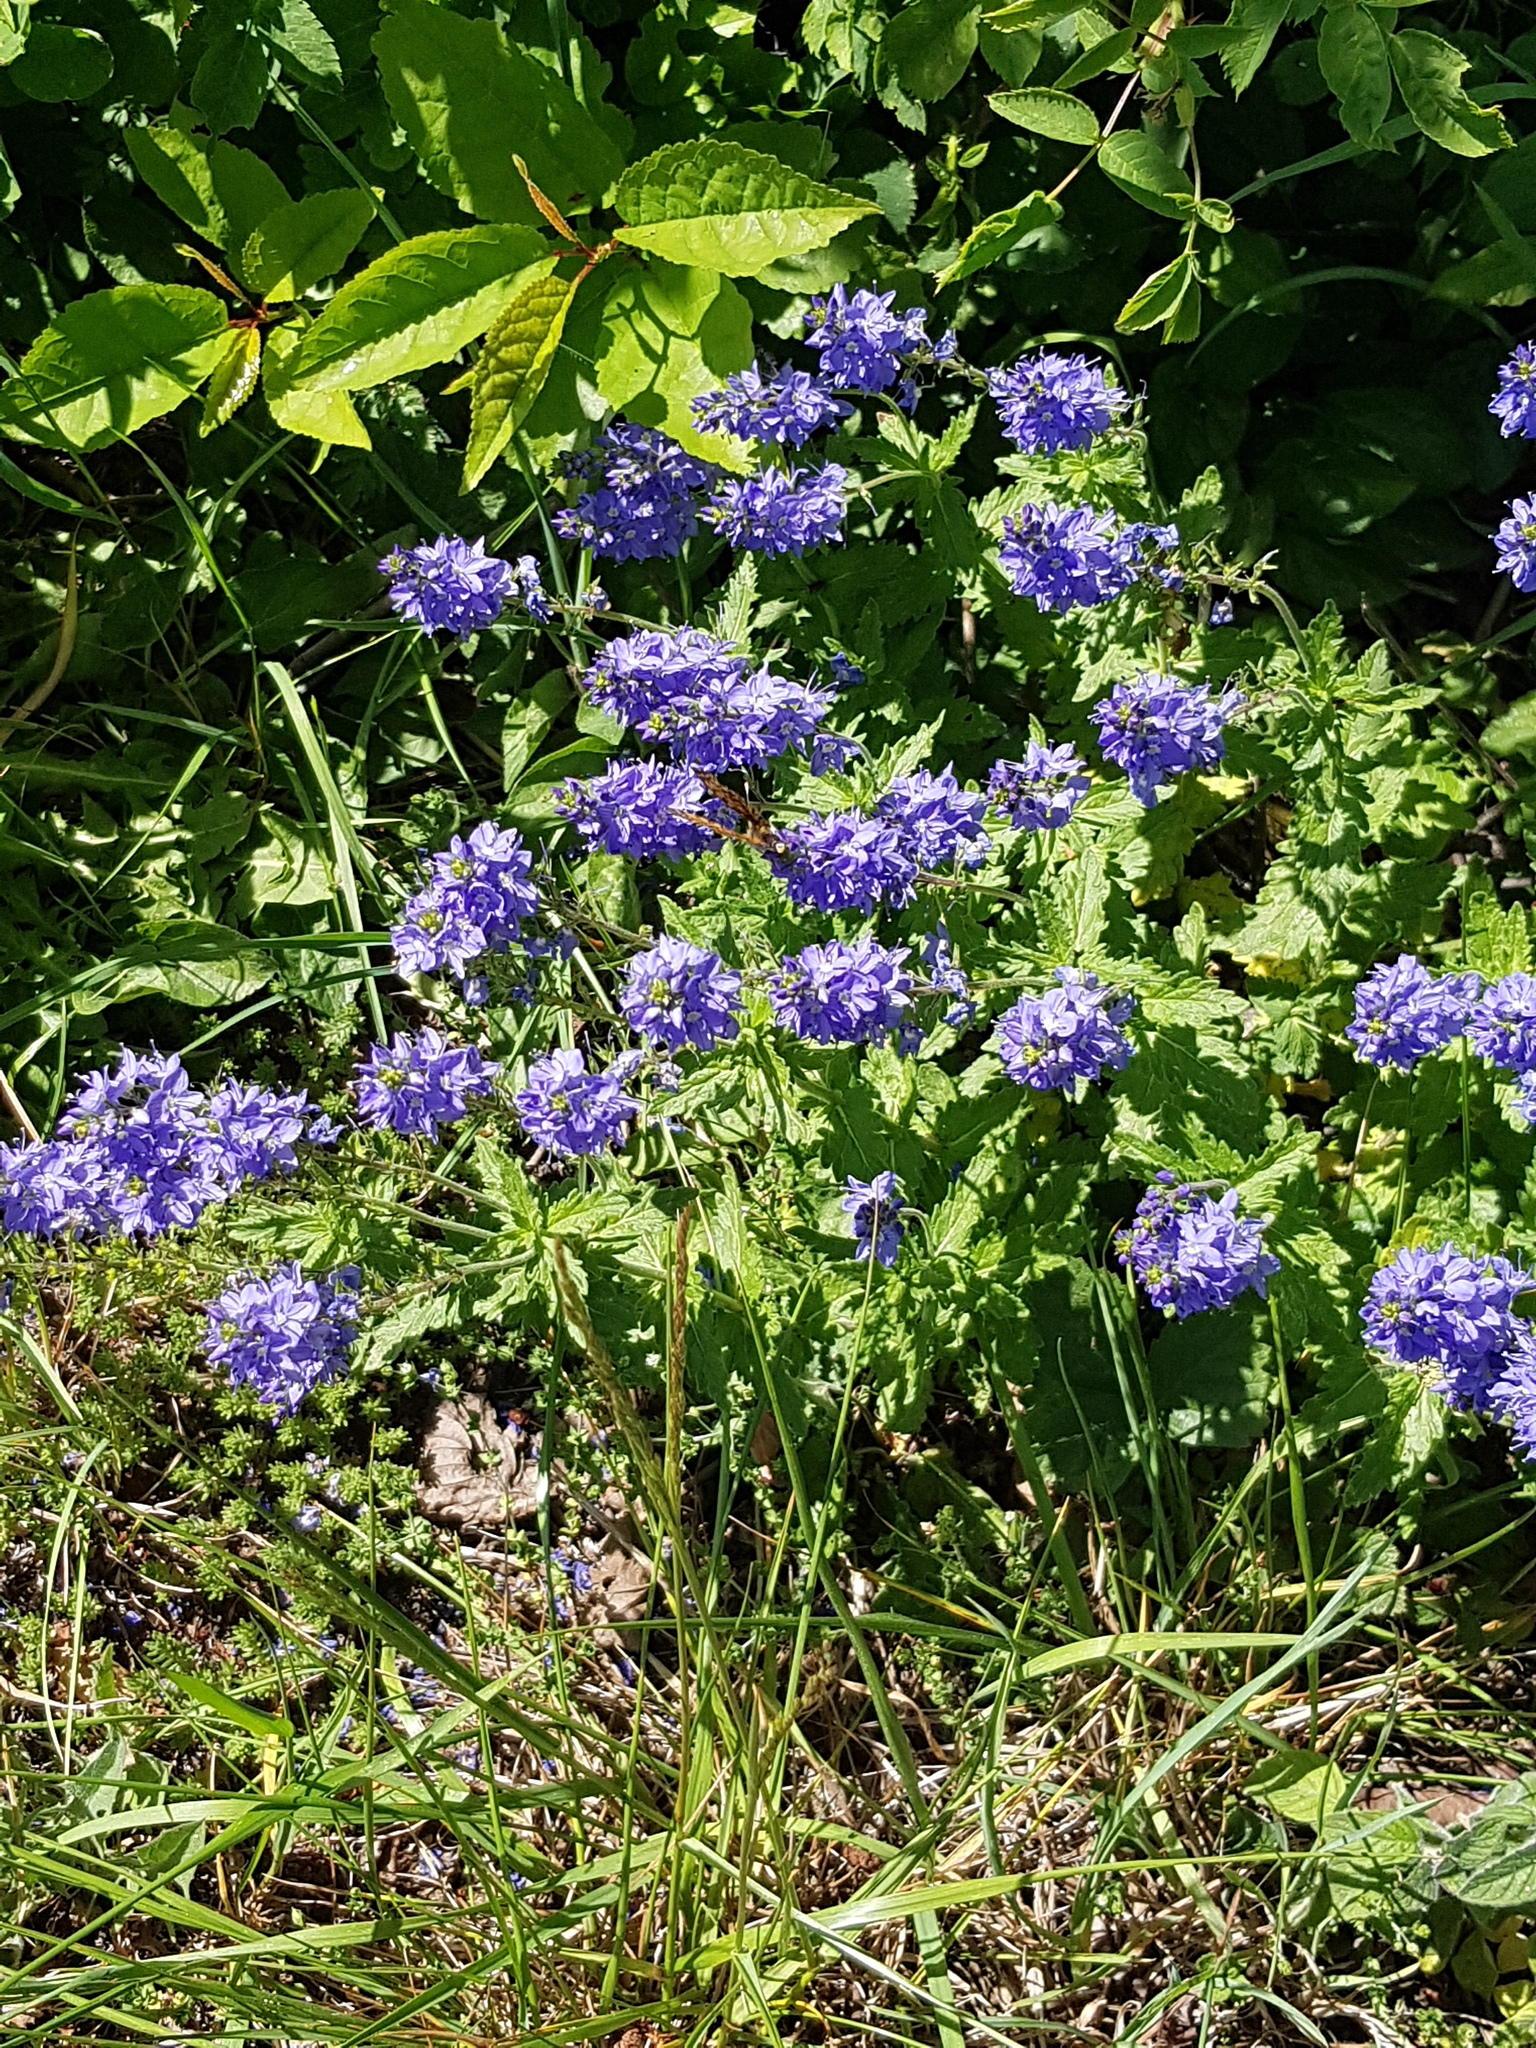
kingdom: Plantae
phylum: Tracheophyta
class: Magnoliopsida
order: Lamiales
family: Plantaginaceae
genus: Veronica
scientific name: Veronica teucrium
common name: Large speedwell
